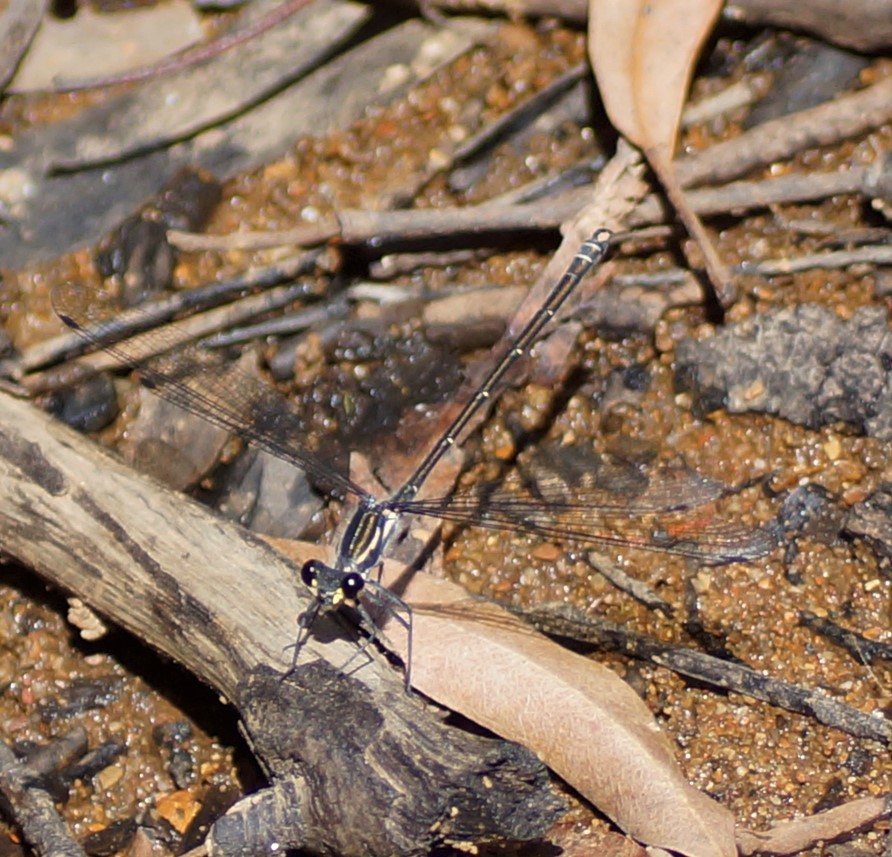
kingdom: Animalia
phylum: Arthropoda
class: Insecta
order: Odonata
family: Argiolestidae
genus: Austroargiolestes
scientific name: Austroargiolestes icteromelas
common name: Common flatwing
